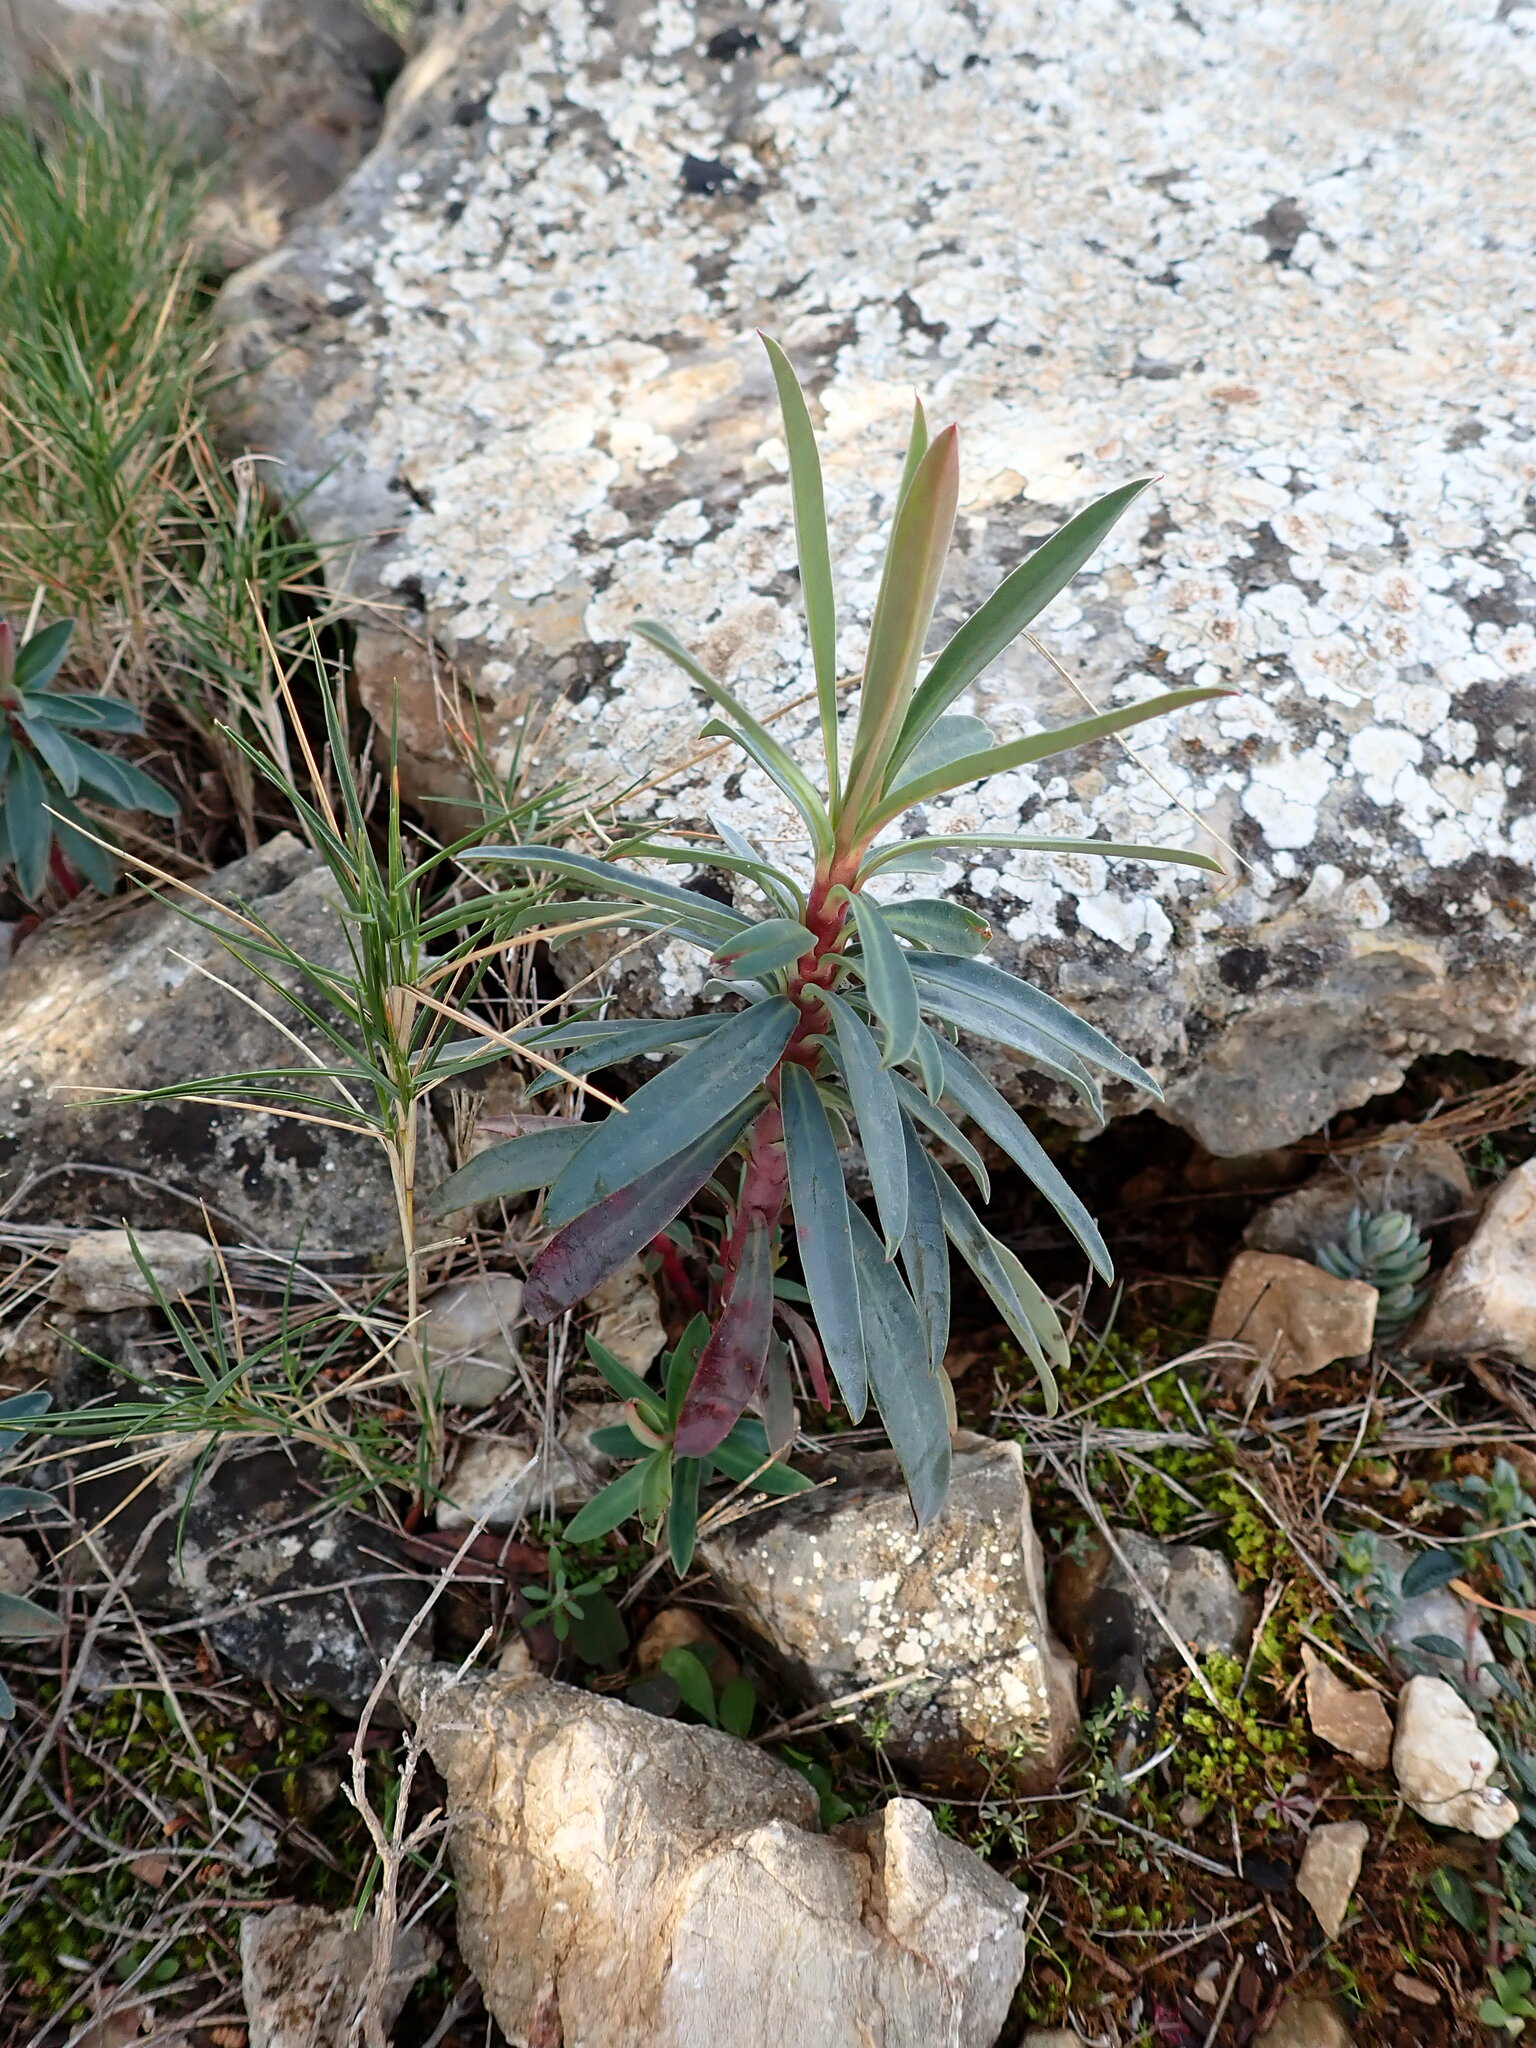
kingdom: Plantae
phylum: Tracheophyta
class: Magnoliopsida
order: Malpighiales
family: Euphorbiaceae
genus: Euphorbia
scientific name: Euphorbia characias
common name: Mediterranean spurge
